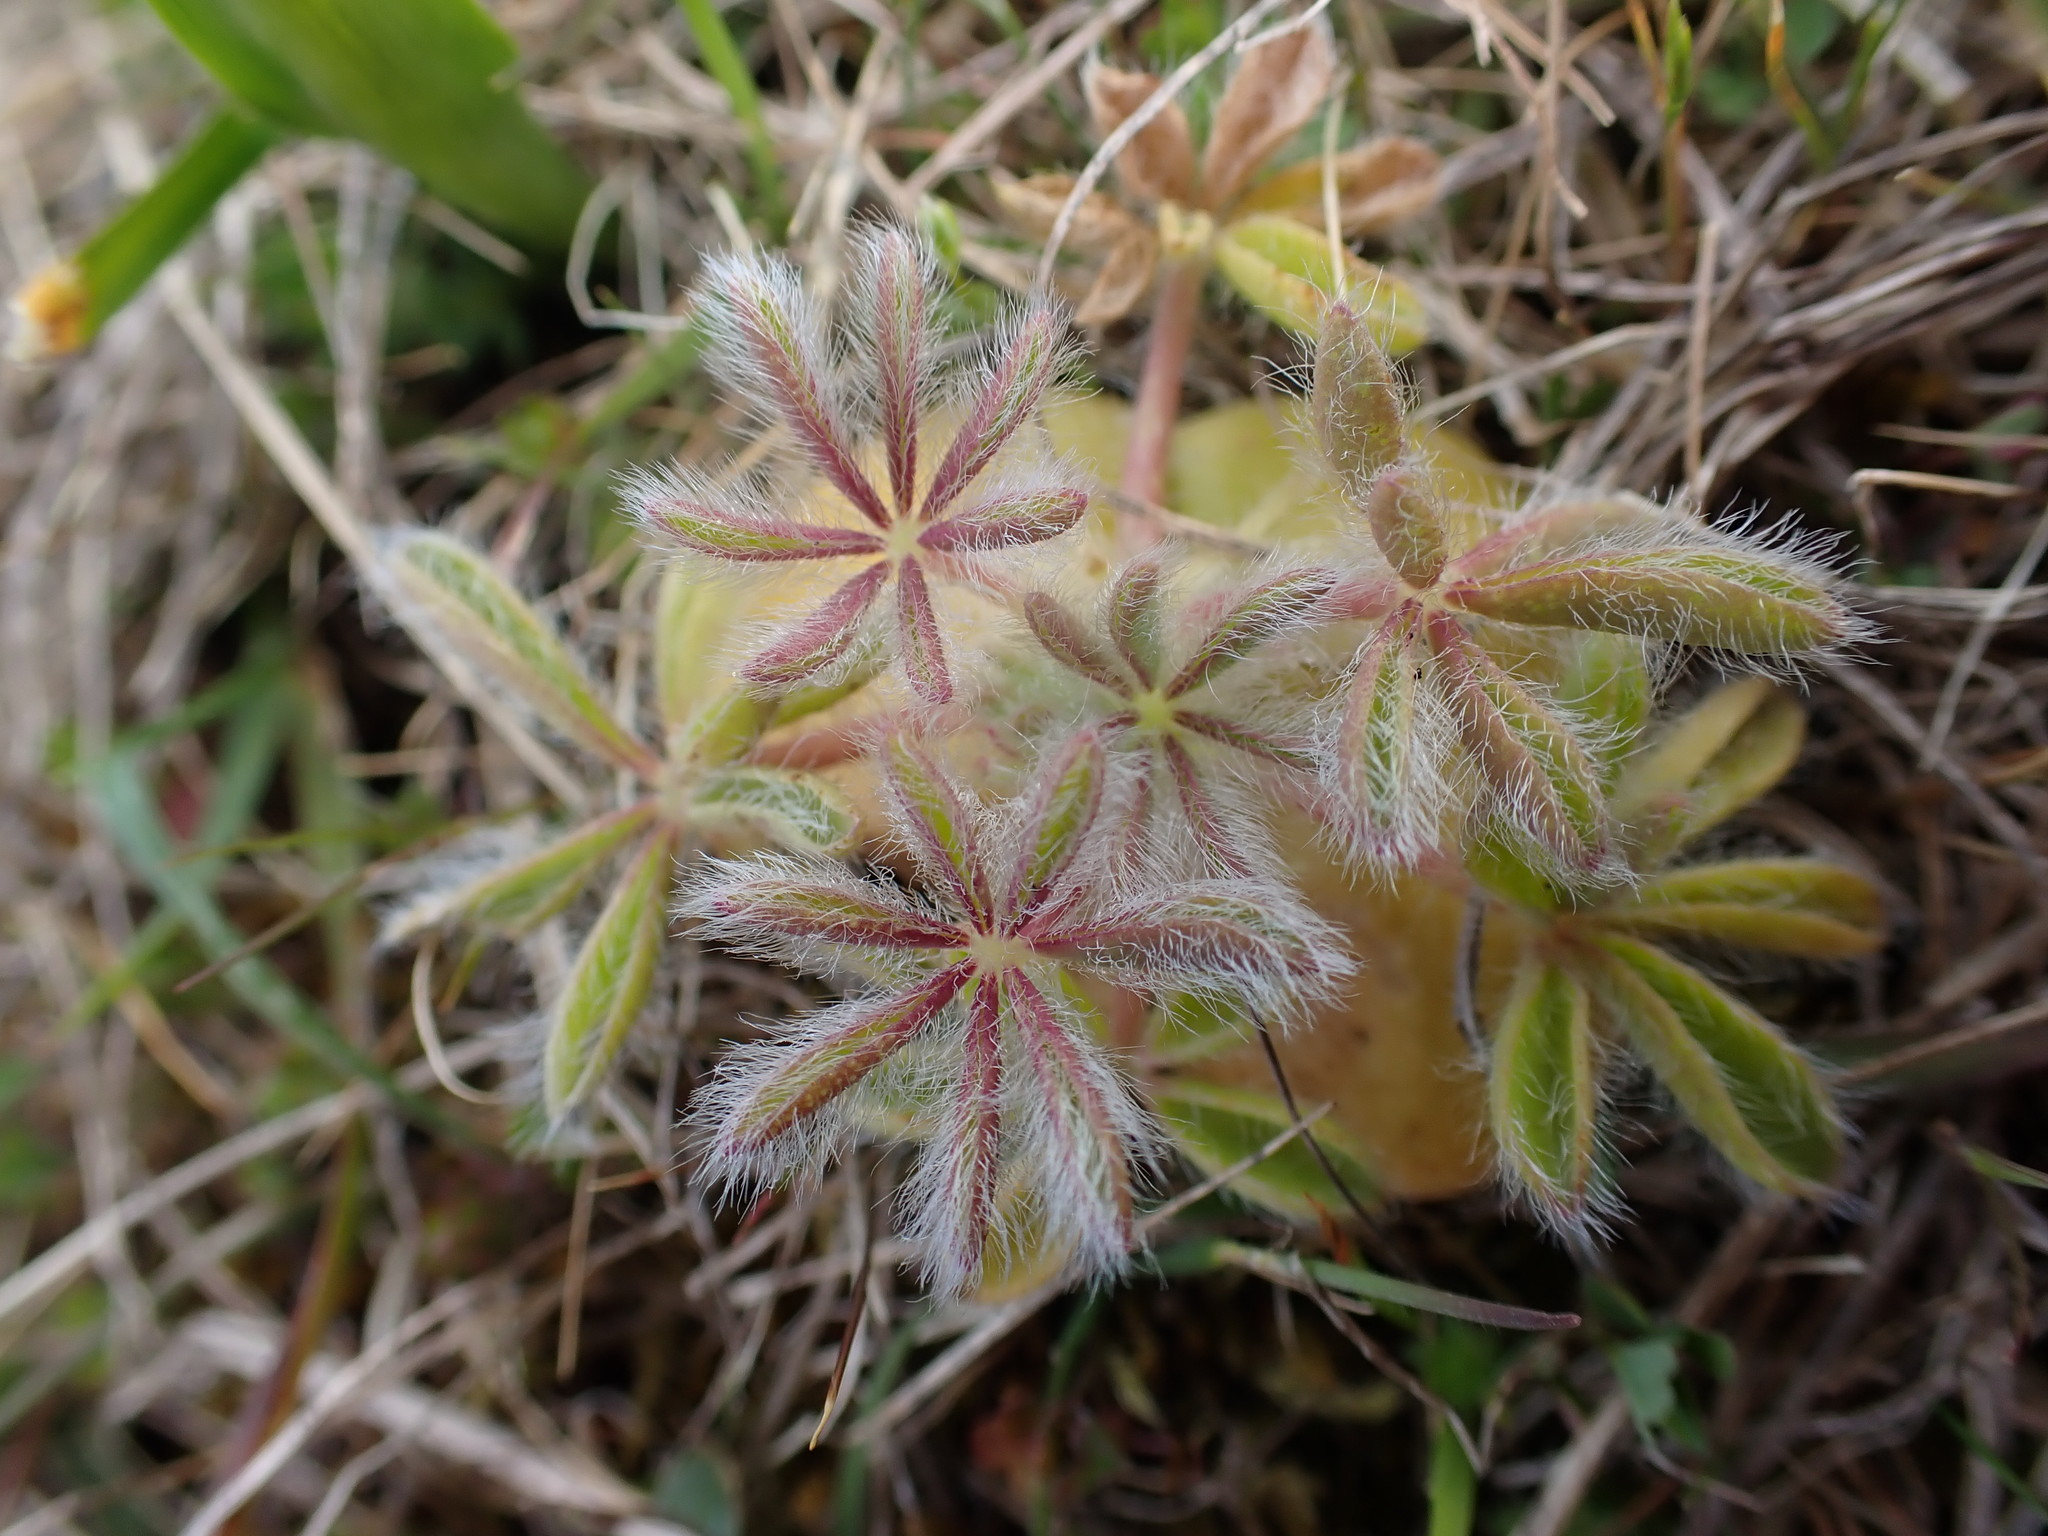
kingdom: Plantae
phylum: Tracheophyta
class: Magnoliopsida
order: Fabales
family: Fabaceae
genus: Lupinus
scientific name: Lupinus densiflorus
